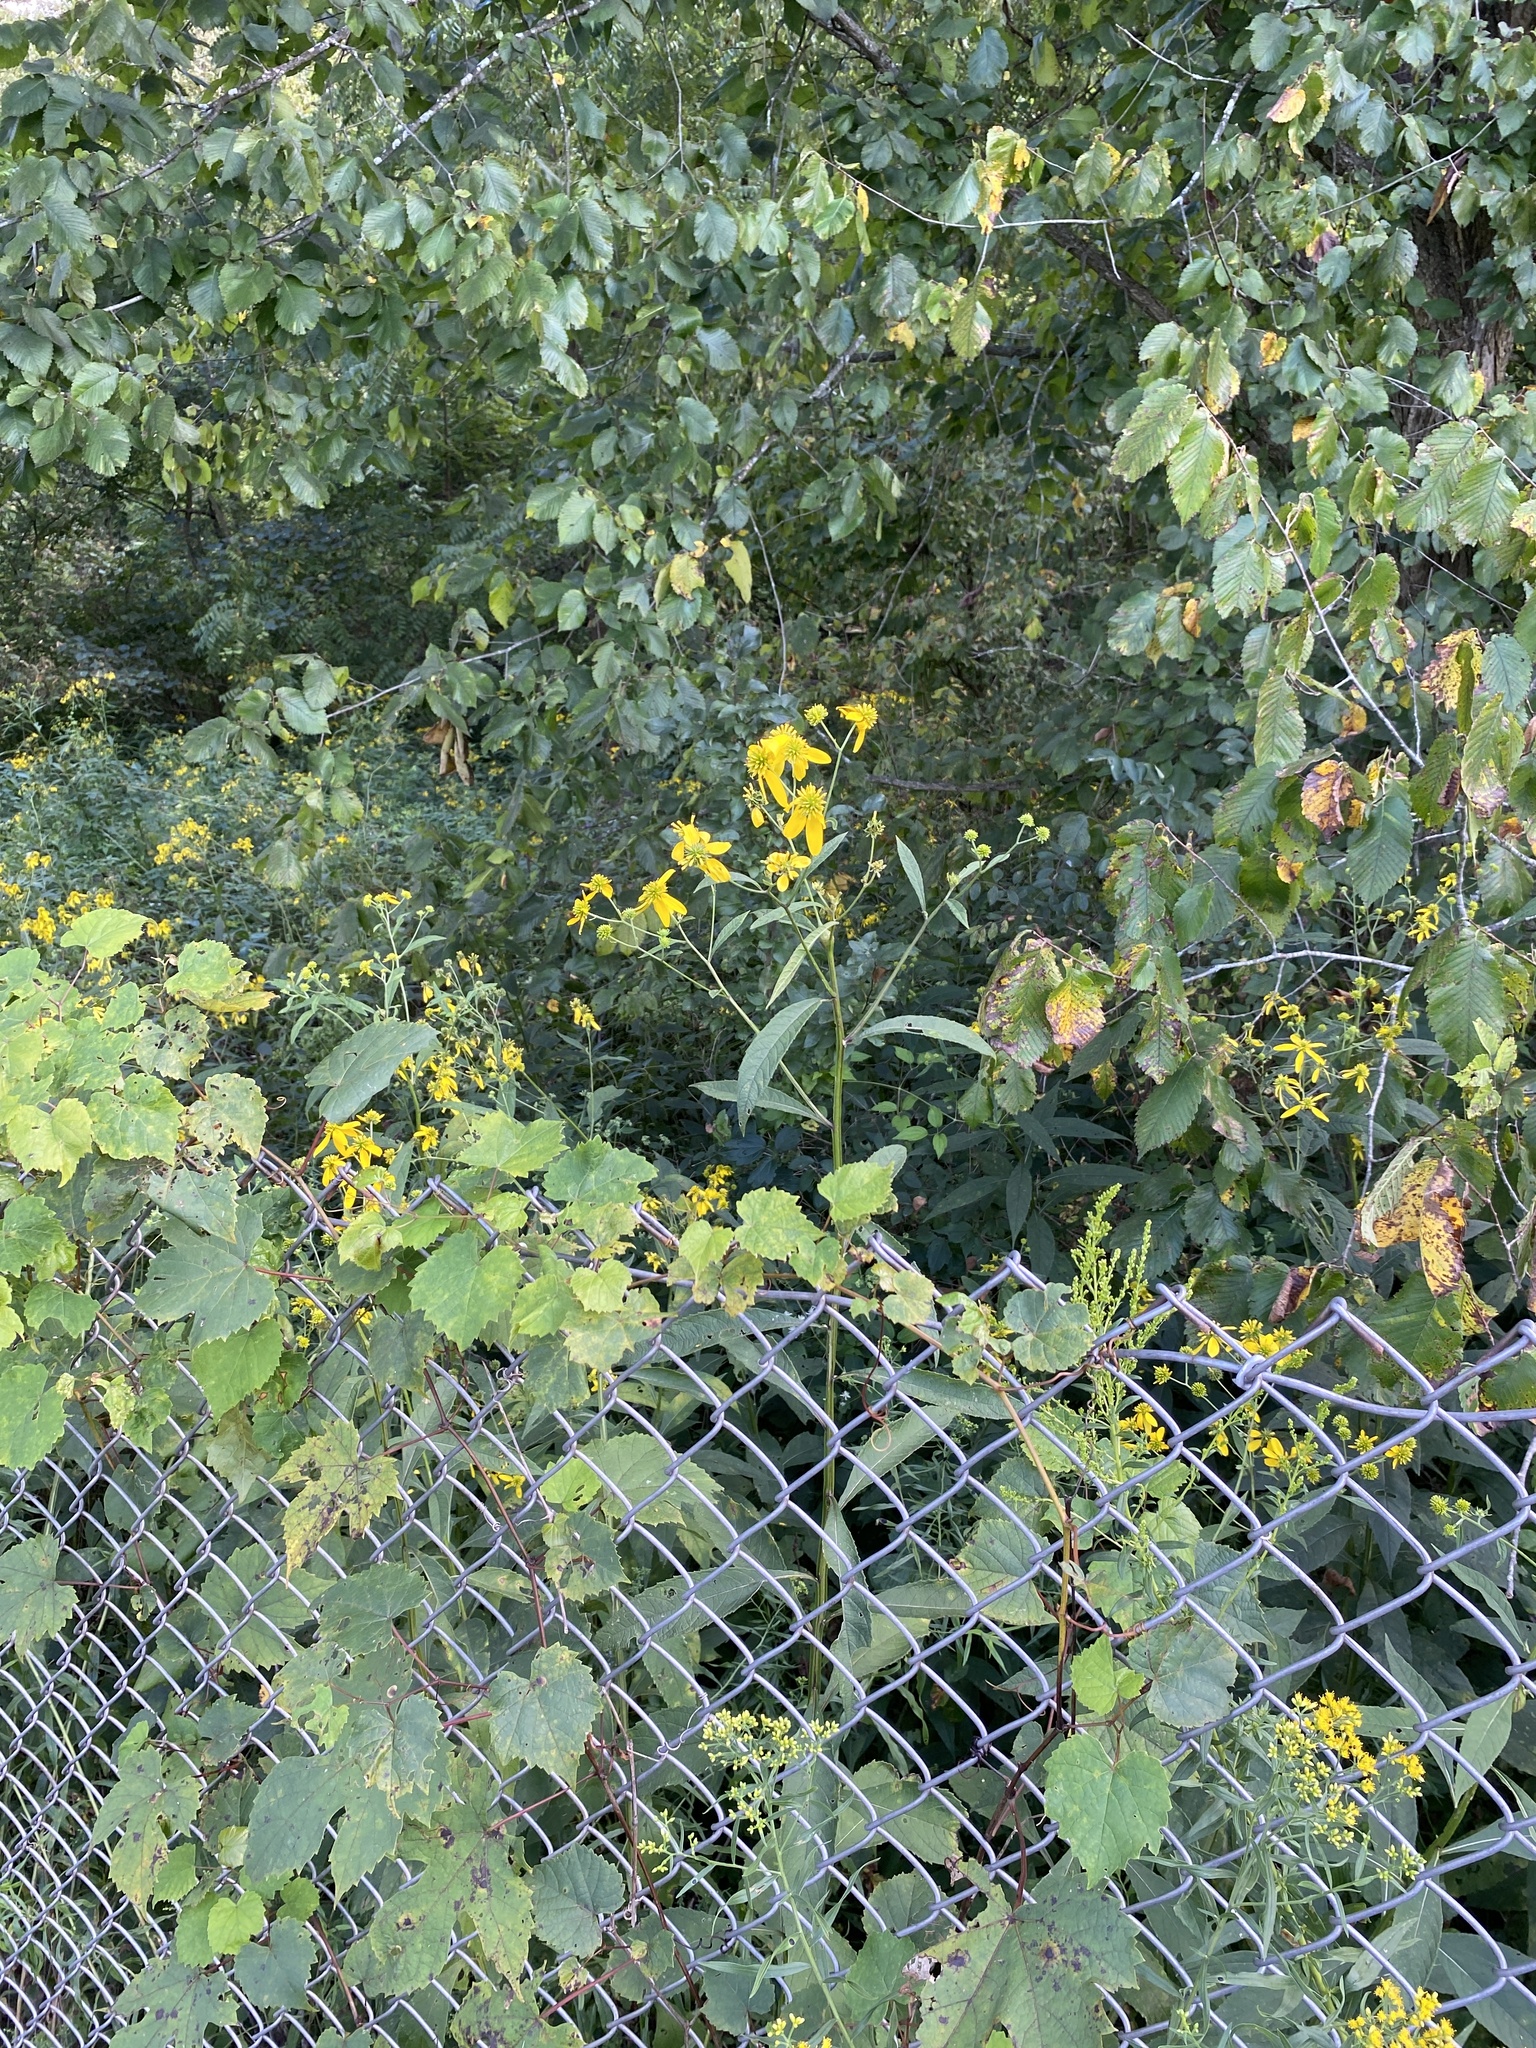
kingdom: Plantae
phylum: Tracheophyta
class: Magnoliopsida
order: Asterales
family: Asteraceae
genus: Verbesina
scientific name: Verbesina alternifolia
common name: Wingstem
